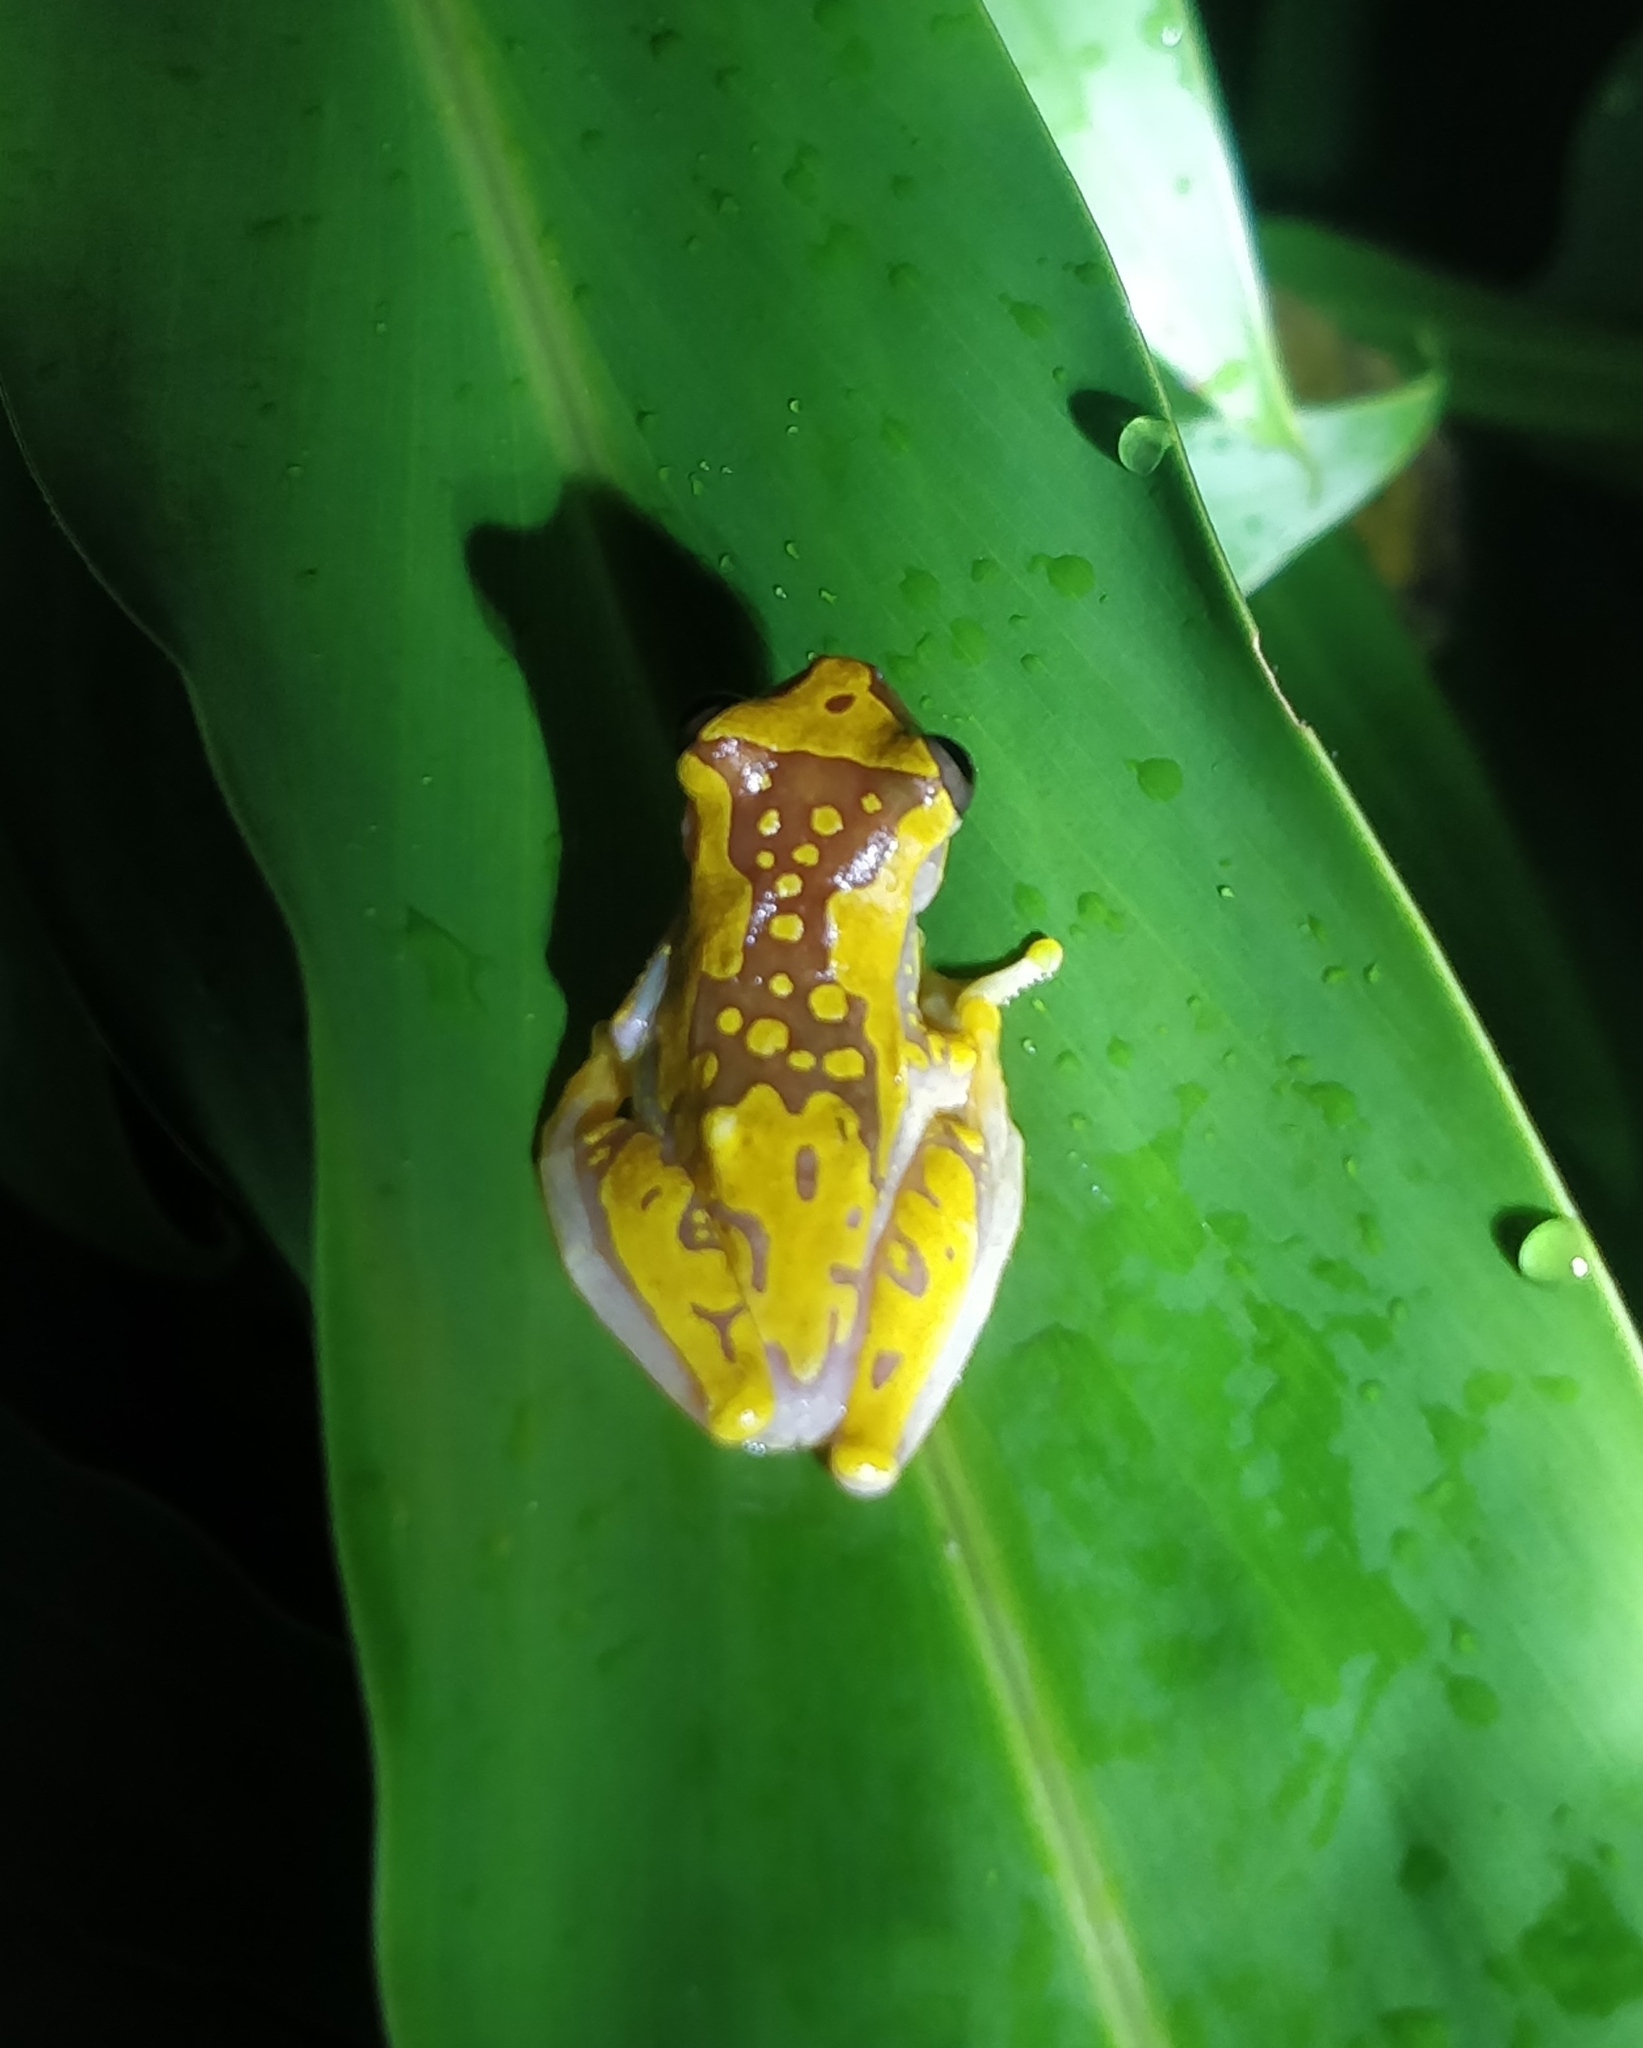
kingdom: Animalia
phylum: Chordata
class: Amphibia
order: Anura
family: Hylidae
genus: Dendropsophus
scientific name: Dendropsophus ebraccatus
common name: Hourglass treefrog
